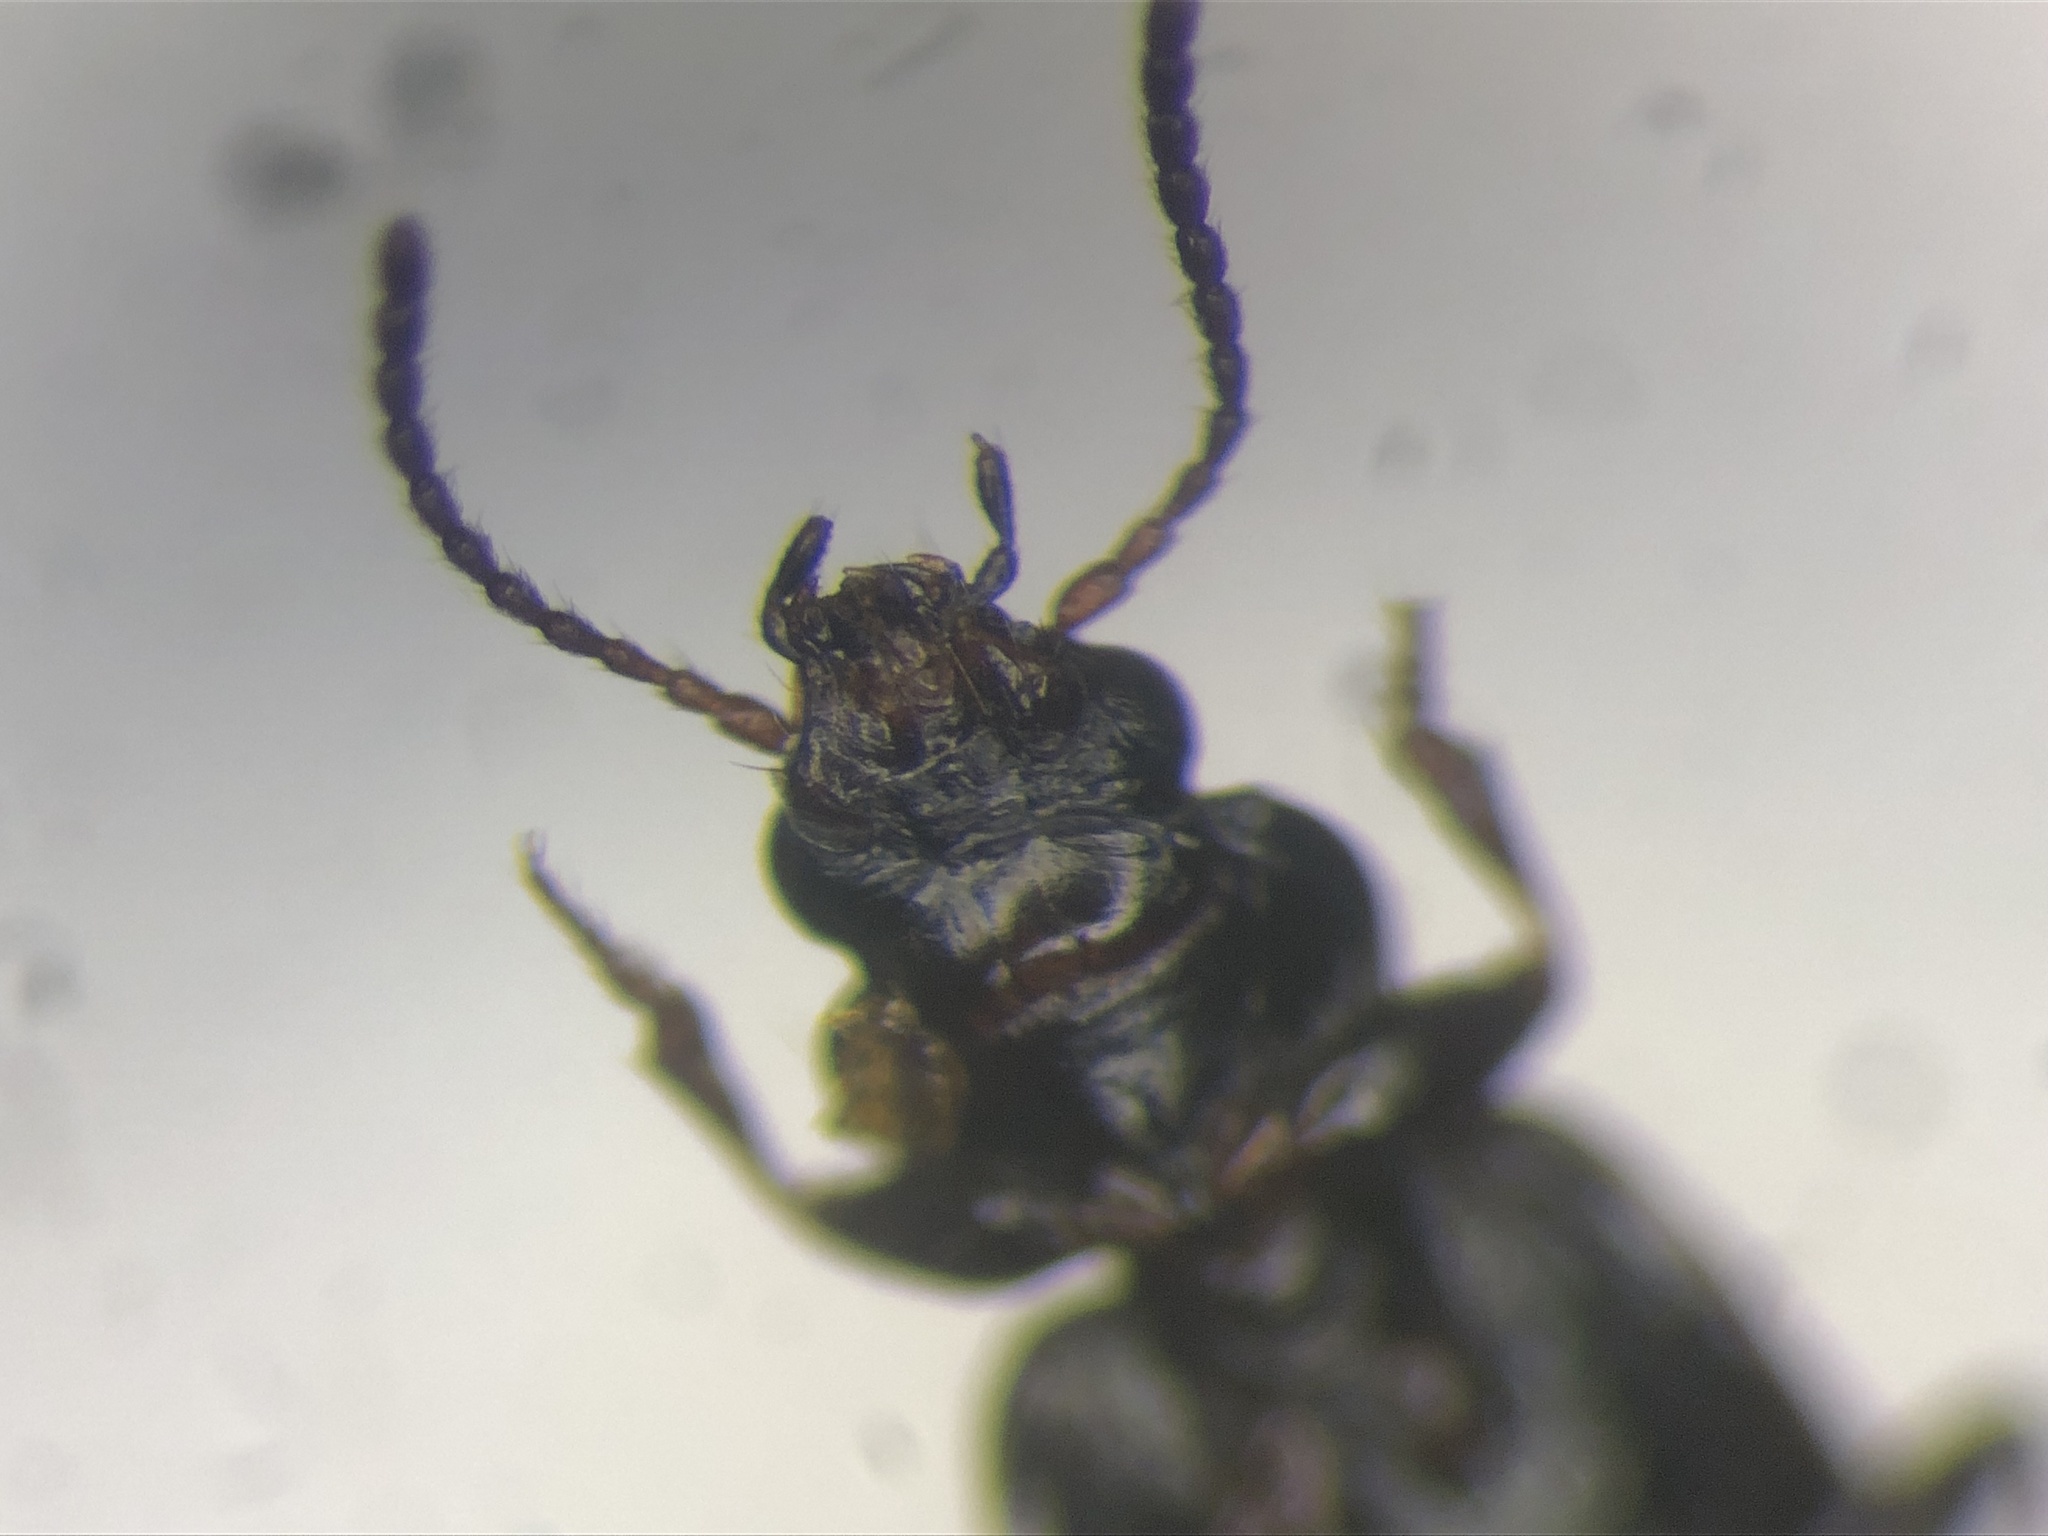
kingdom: Animalia
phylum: Arthropoda
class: Insecta
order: Coleoptera
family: Carabidae
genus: Tachyta
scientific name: Tachyta angulata
